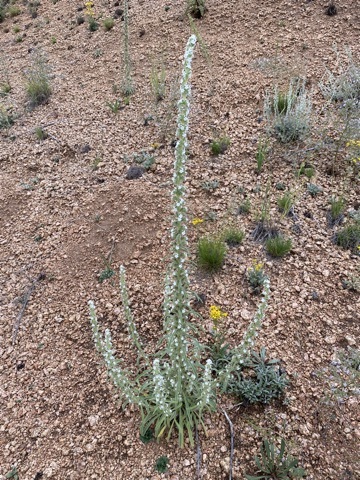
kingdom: Plantae
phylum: Tracheophyta
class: Magnoliopsida
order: Boraginales
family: Boraginaceae
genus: Oreocarya
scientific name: Oreocarya virgata
